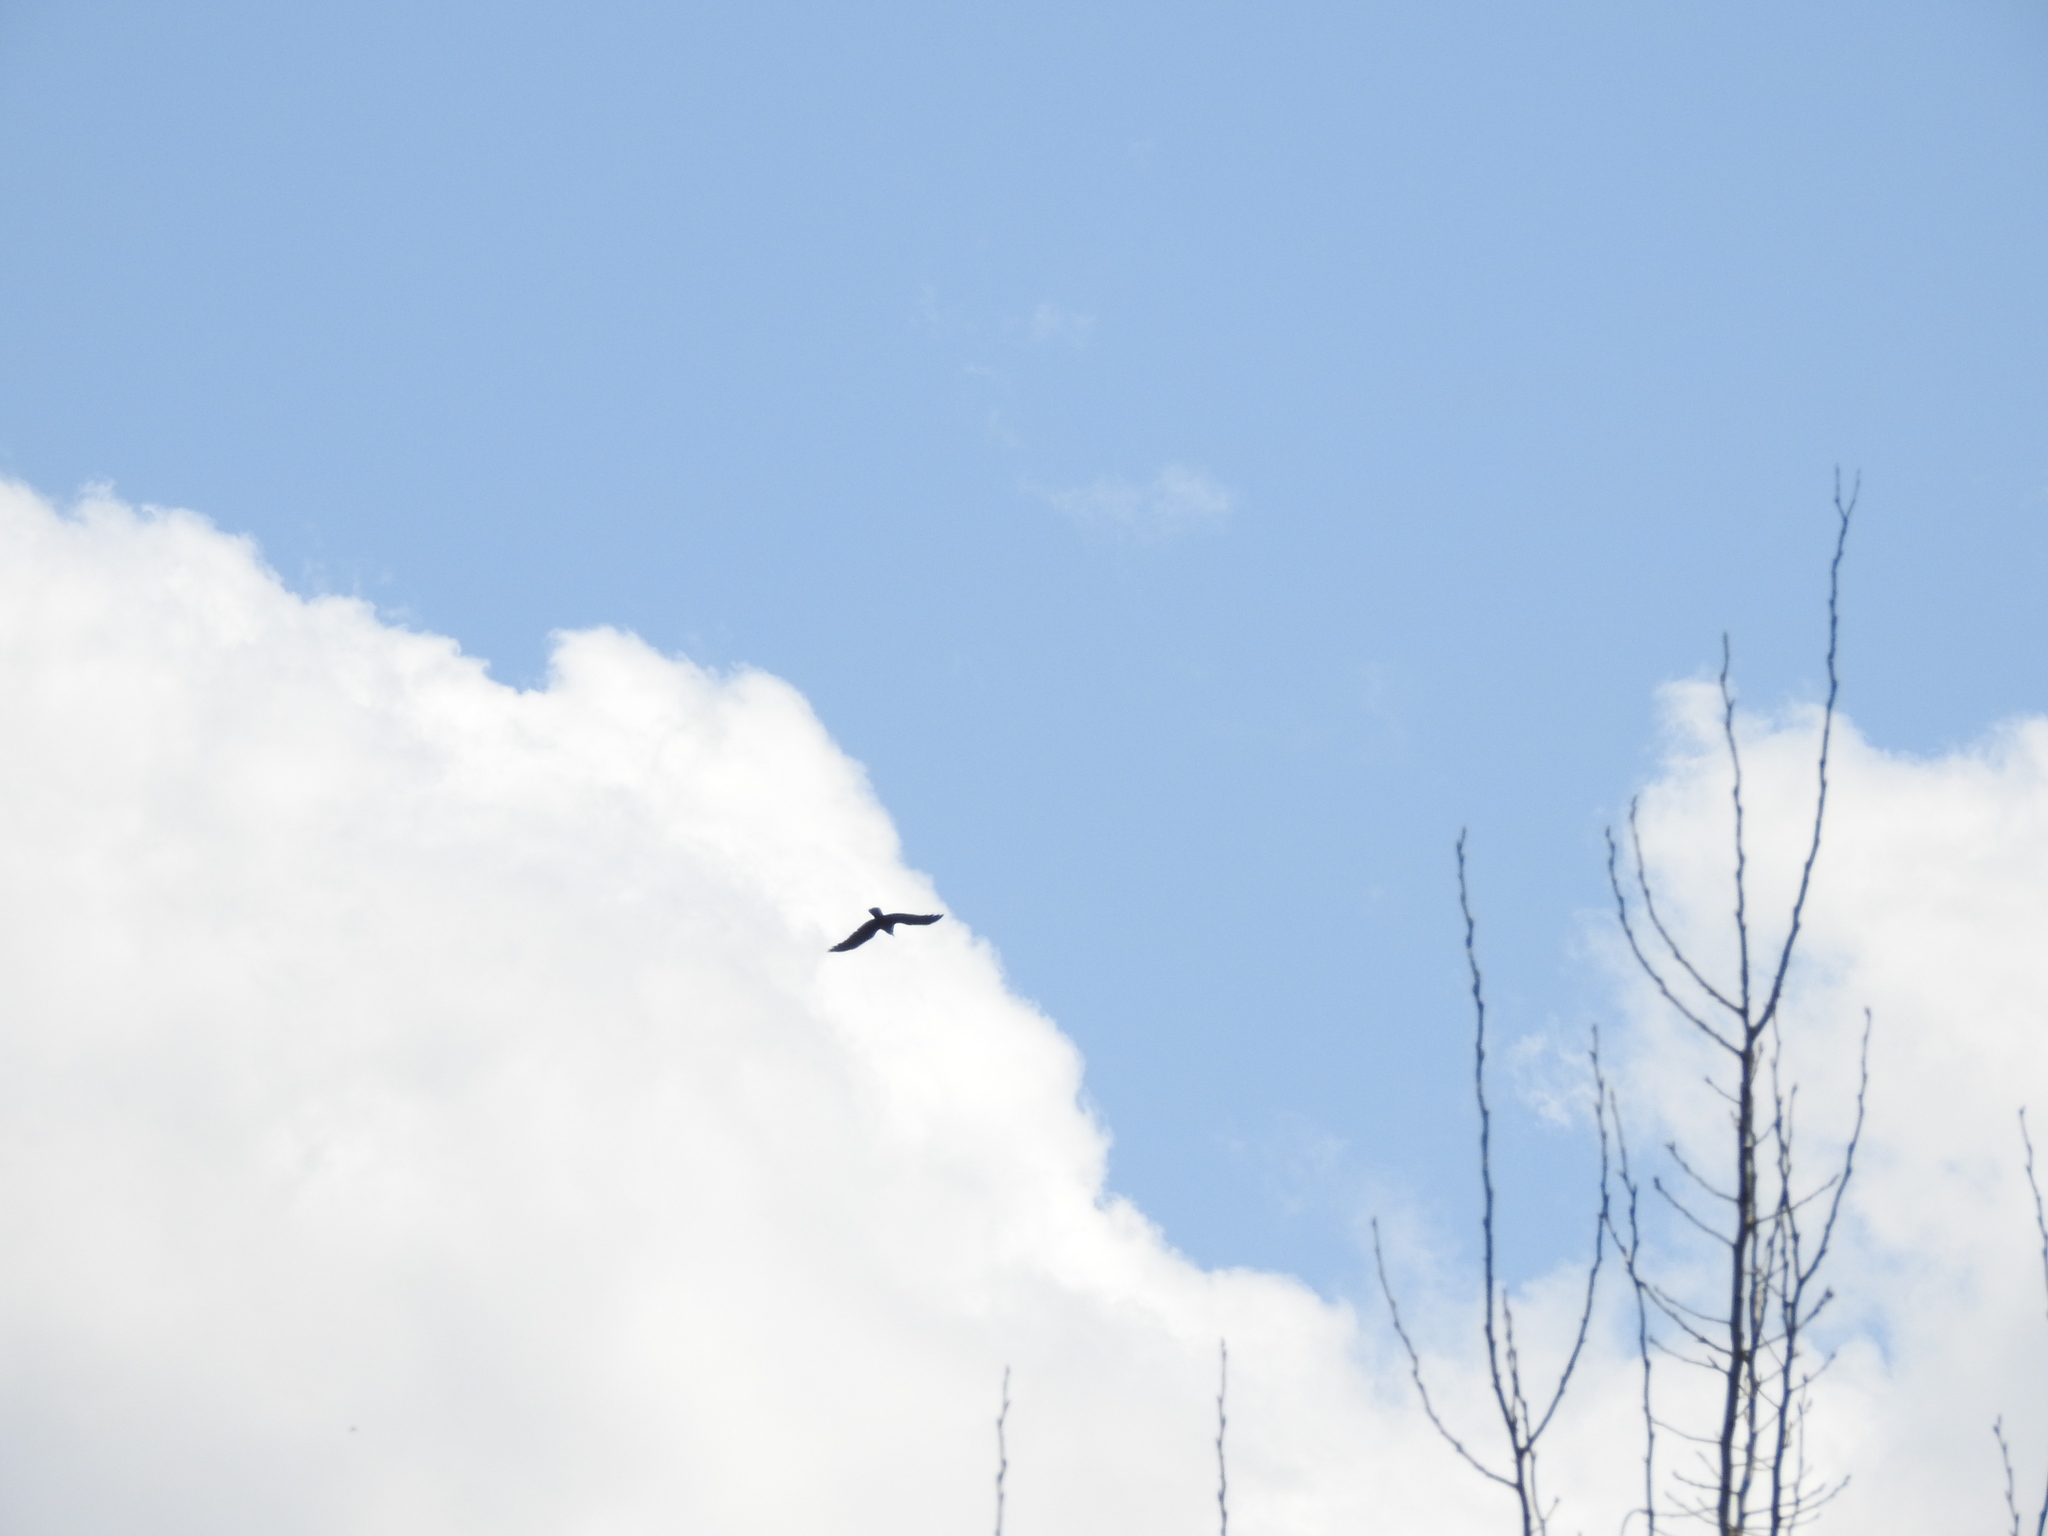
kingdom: Animalia
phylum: Chordata
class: Aves
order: Passeriformes
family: Corvidae
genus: Corvus
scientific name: Corvus ossifragus
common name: Fish crow
